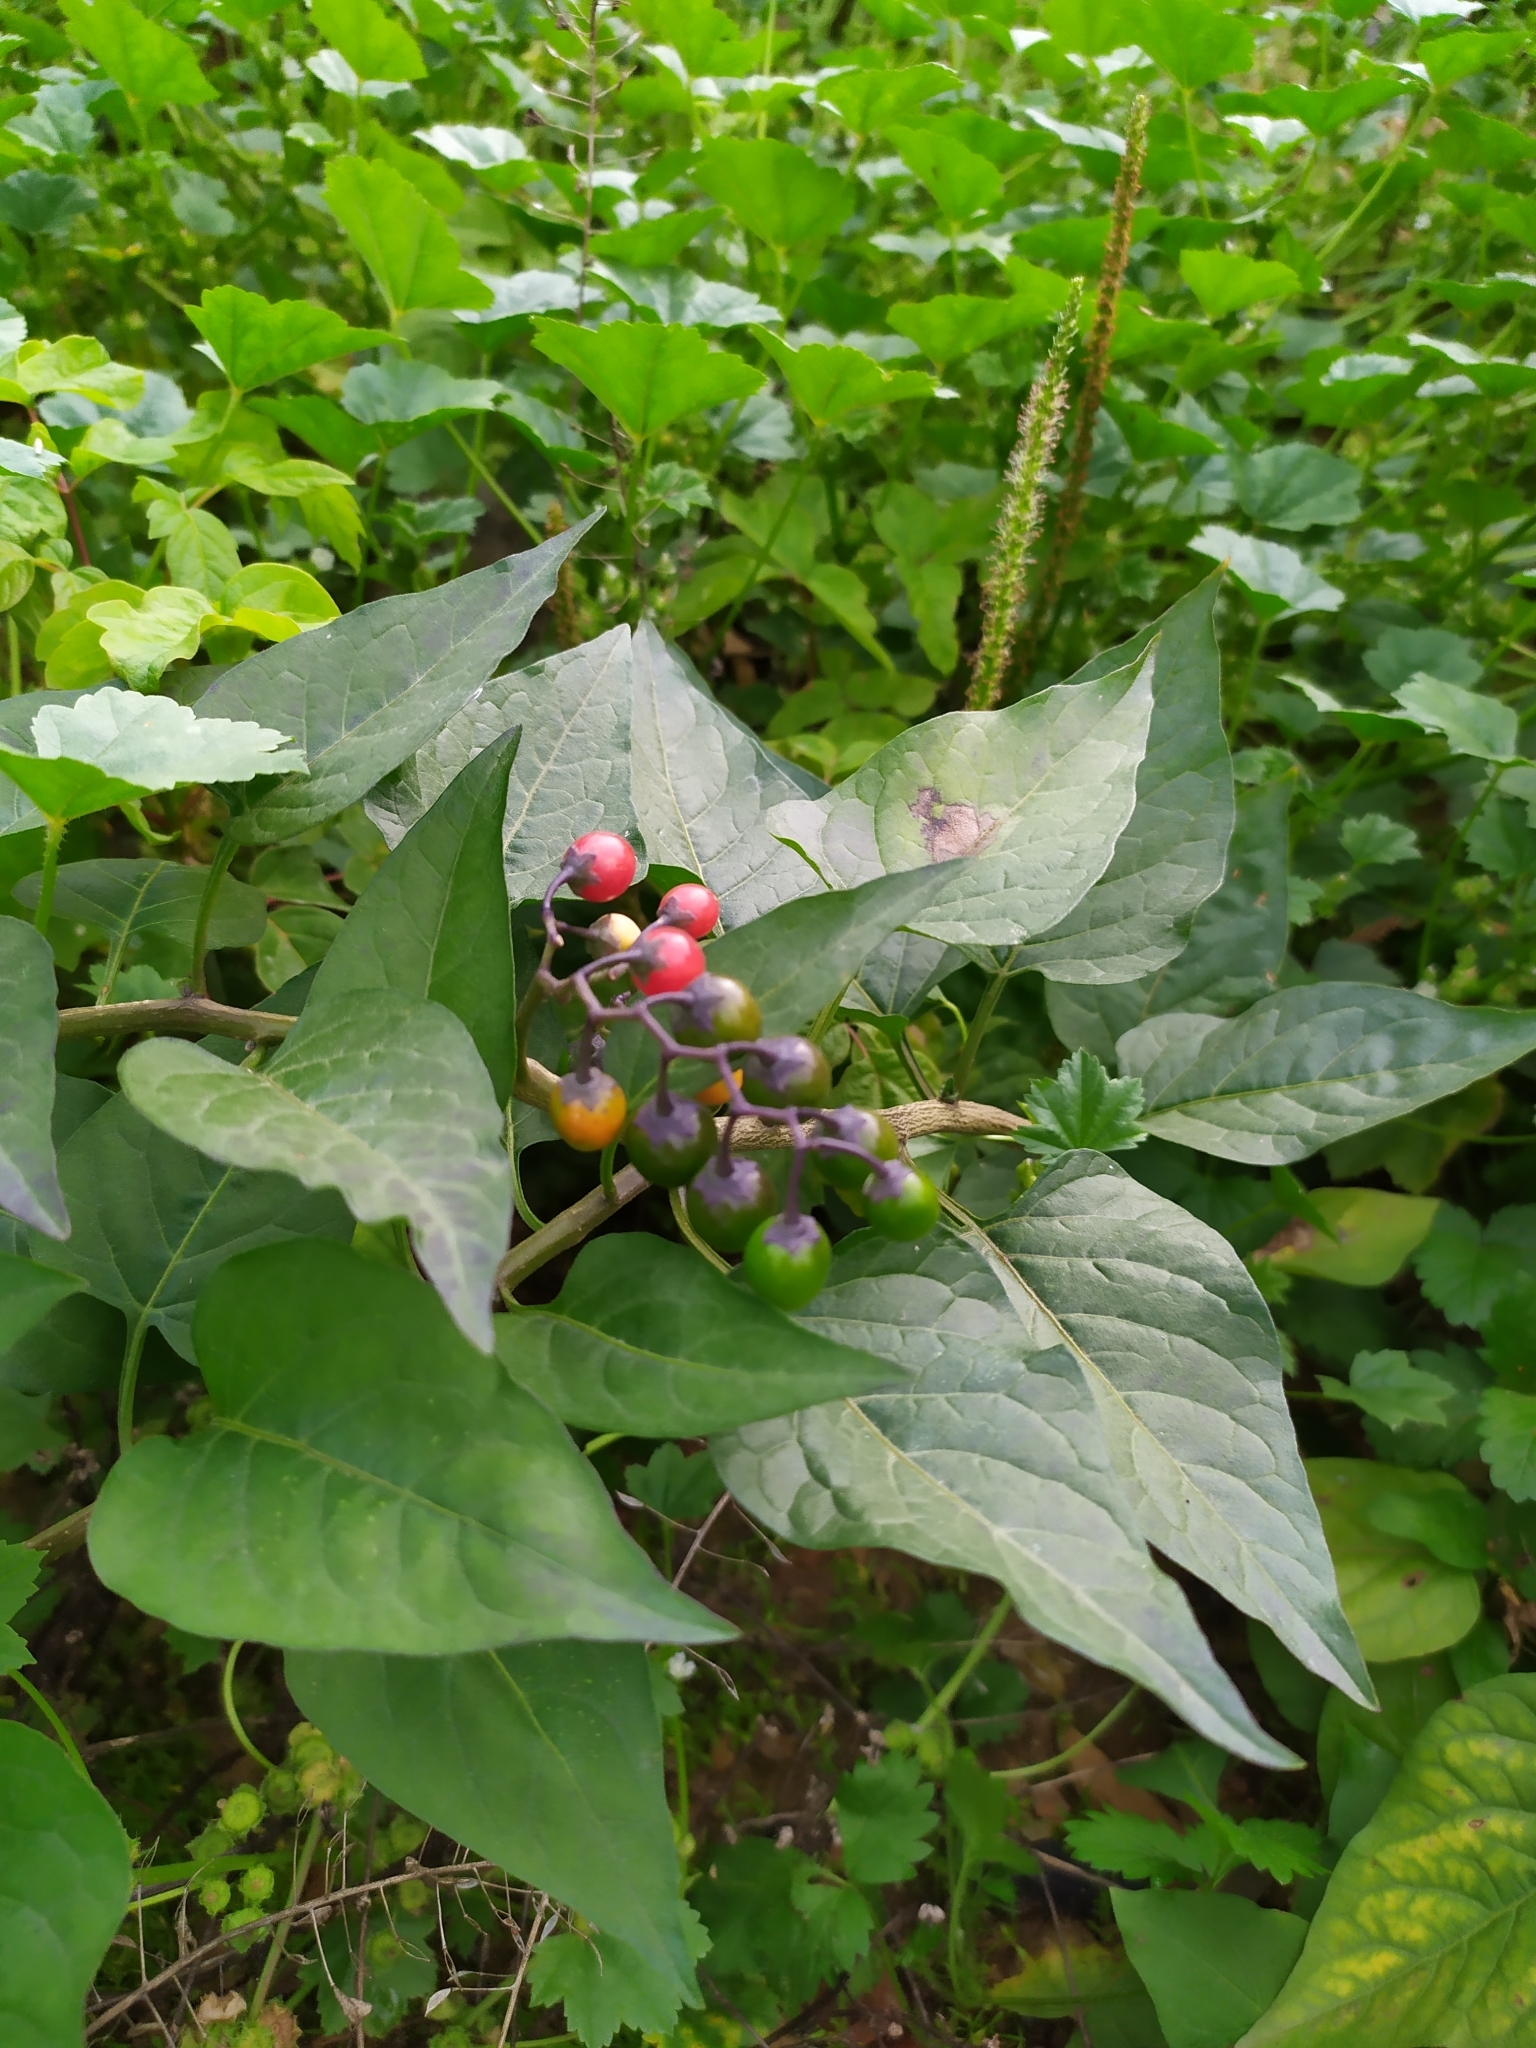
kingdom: Plantae
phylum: Tracheophyta
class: Magnoliopsida
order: Solanales
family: Solanaceae
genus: Solanum
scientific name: Solanum dulcamara
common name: Climbing nightshade
